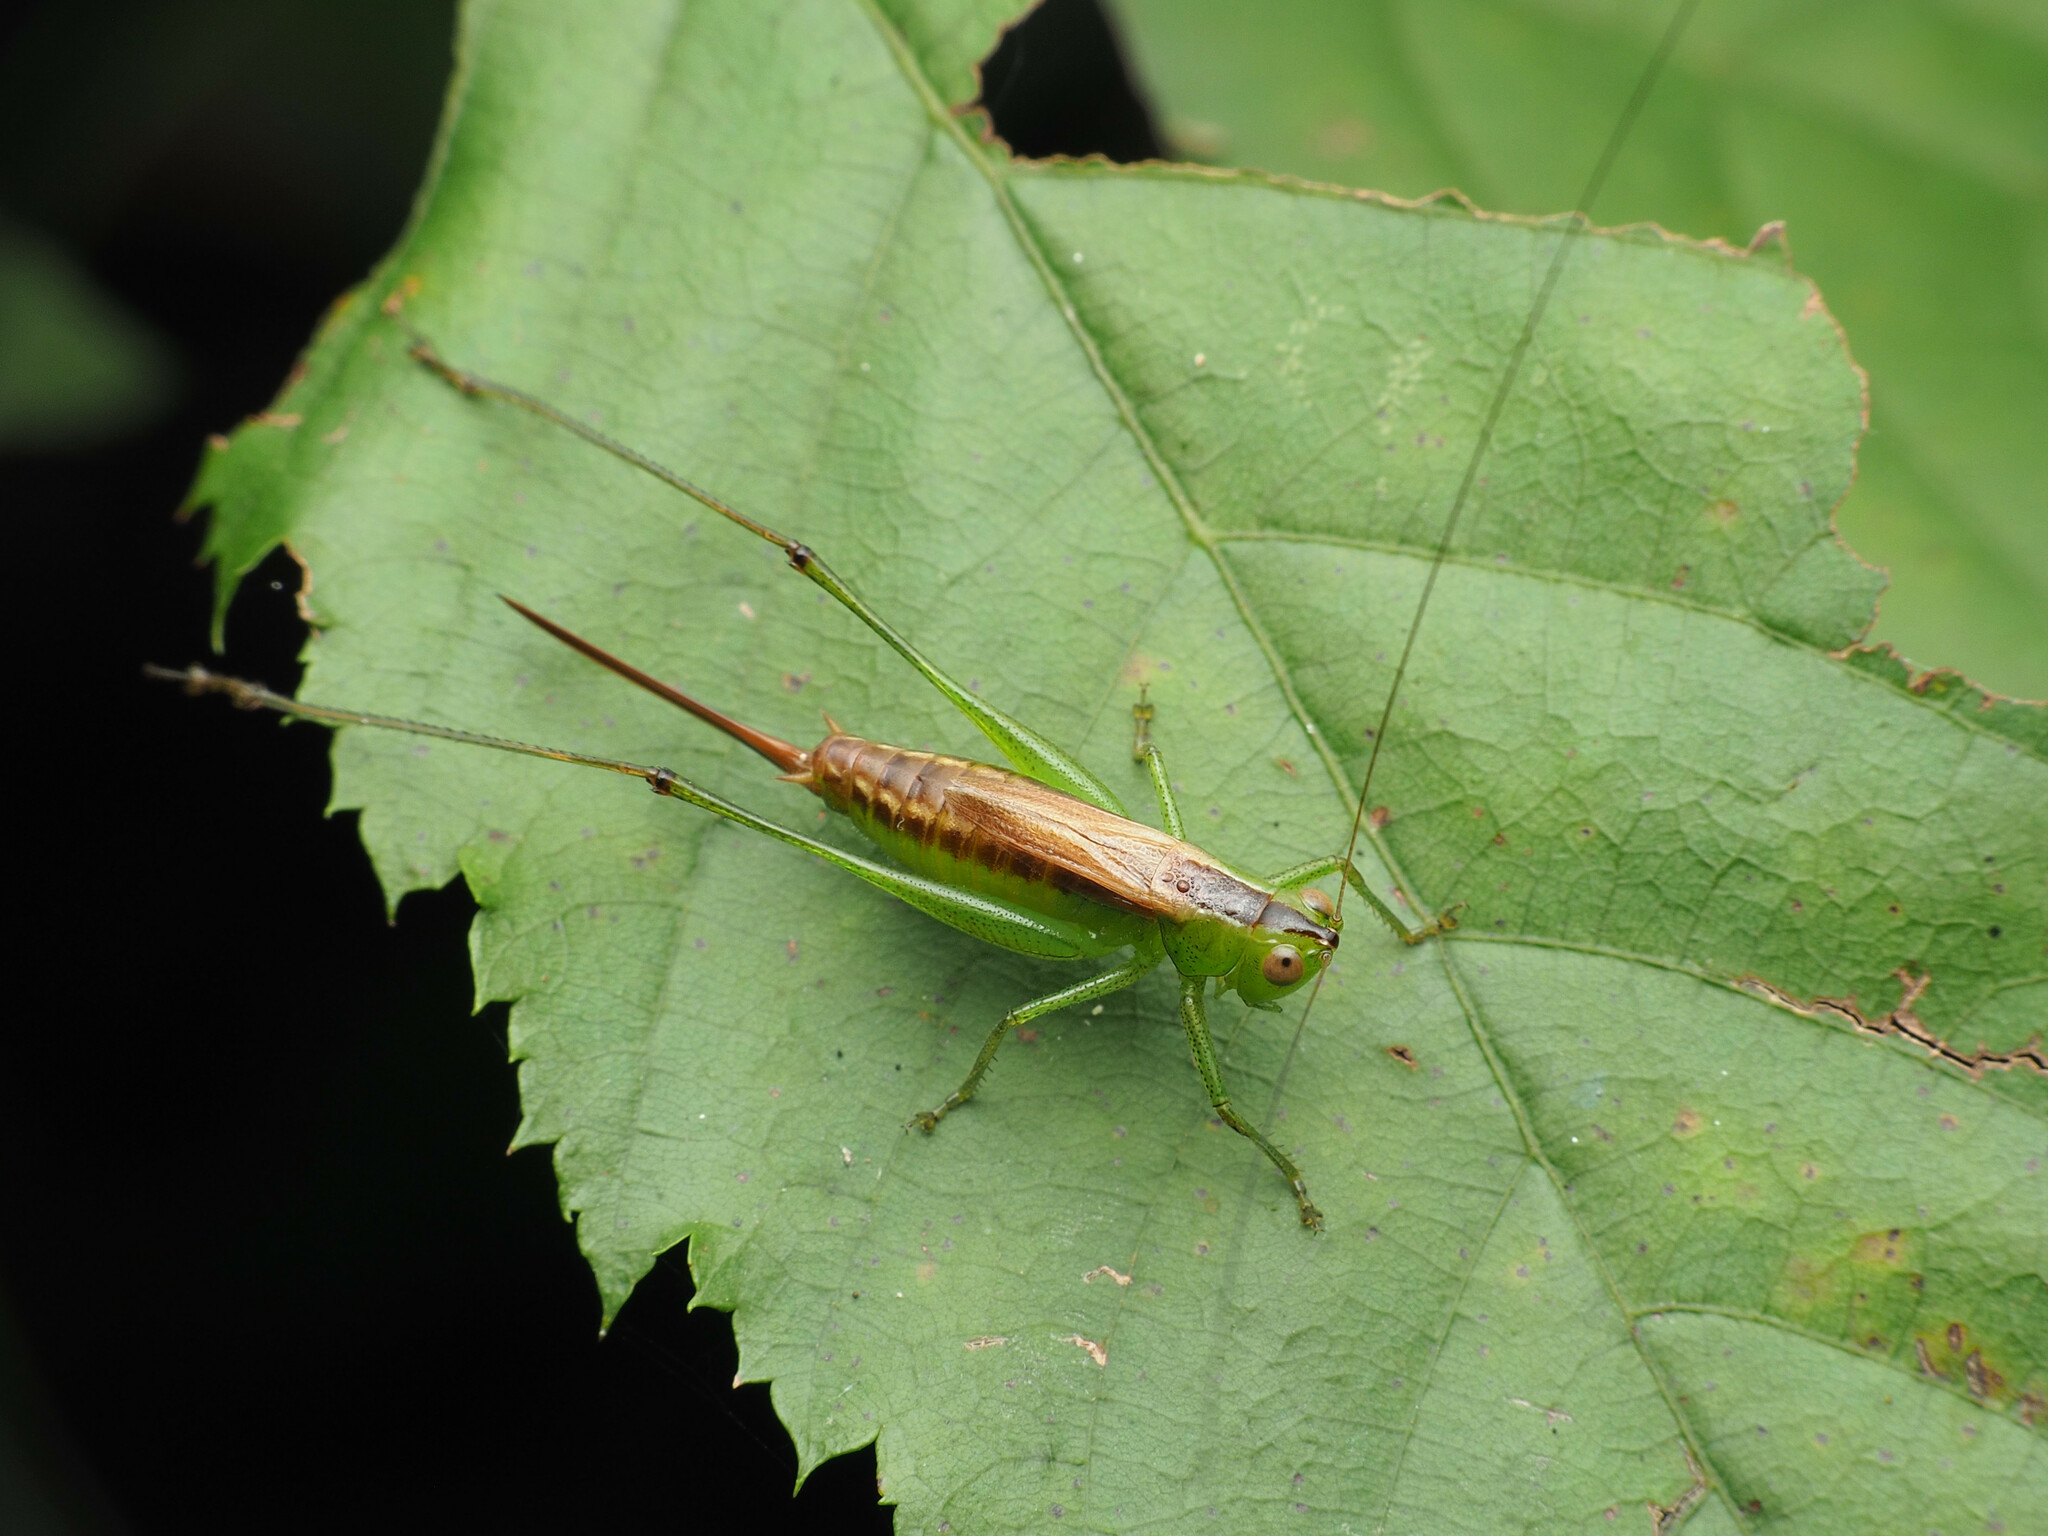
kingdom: Animalia
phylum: Arthropoda
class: Insecta
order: Orthoptera
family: Tettigoniidae
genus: Conocephalus
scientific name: Conocephalus brevipennis
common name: Short-winged meadow katydid
